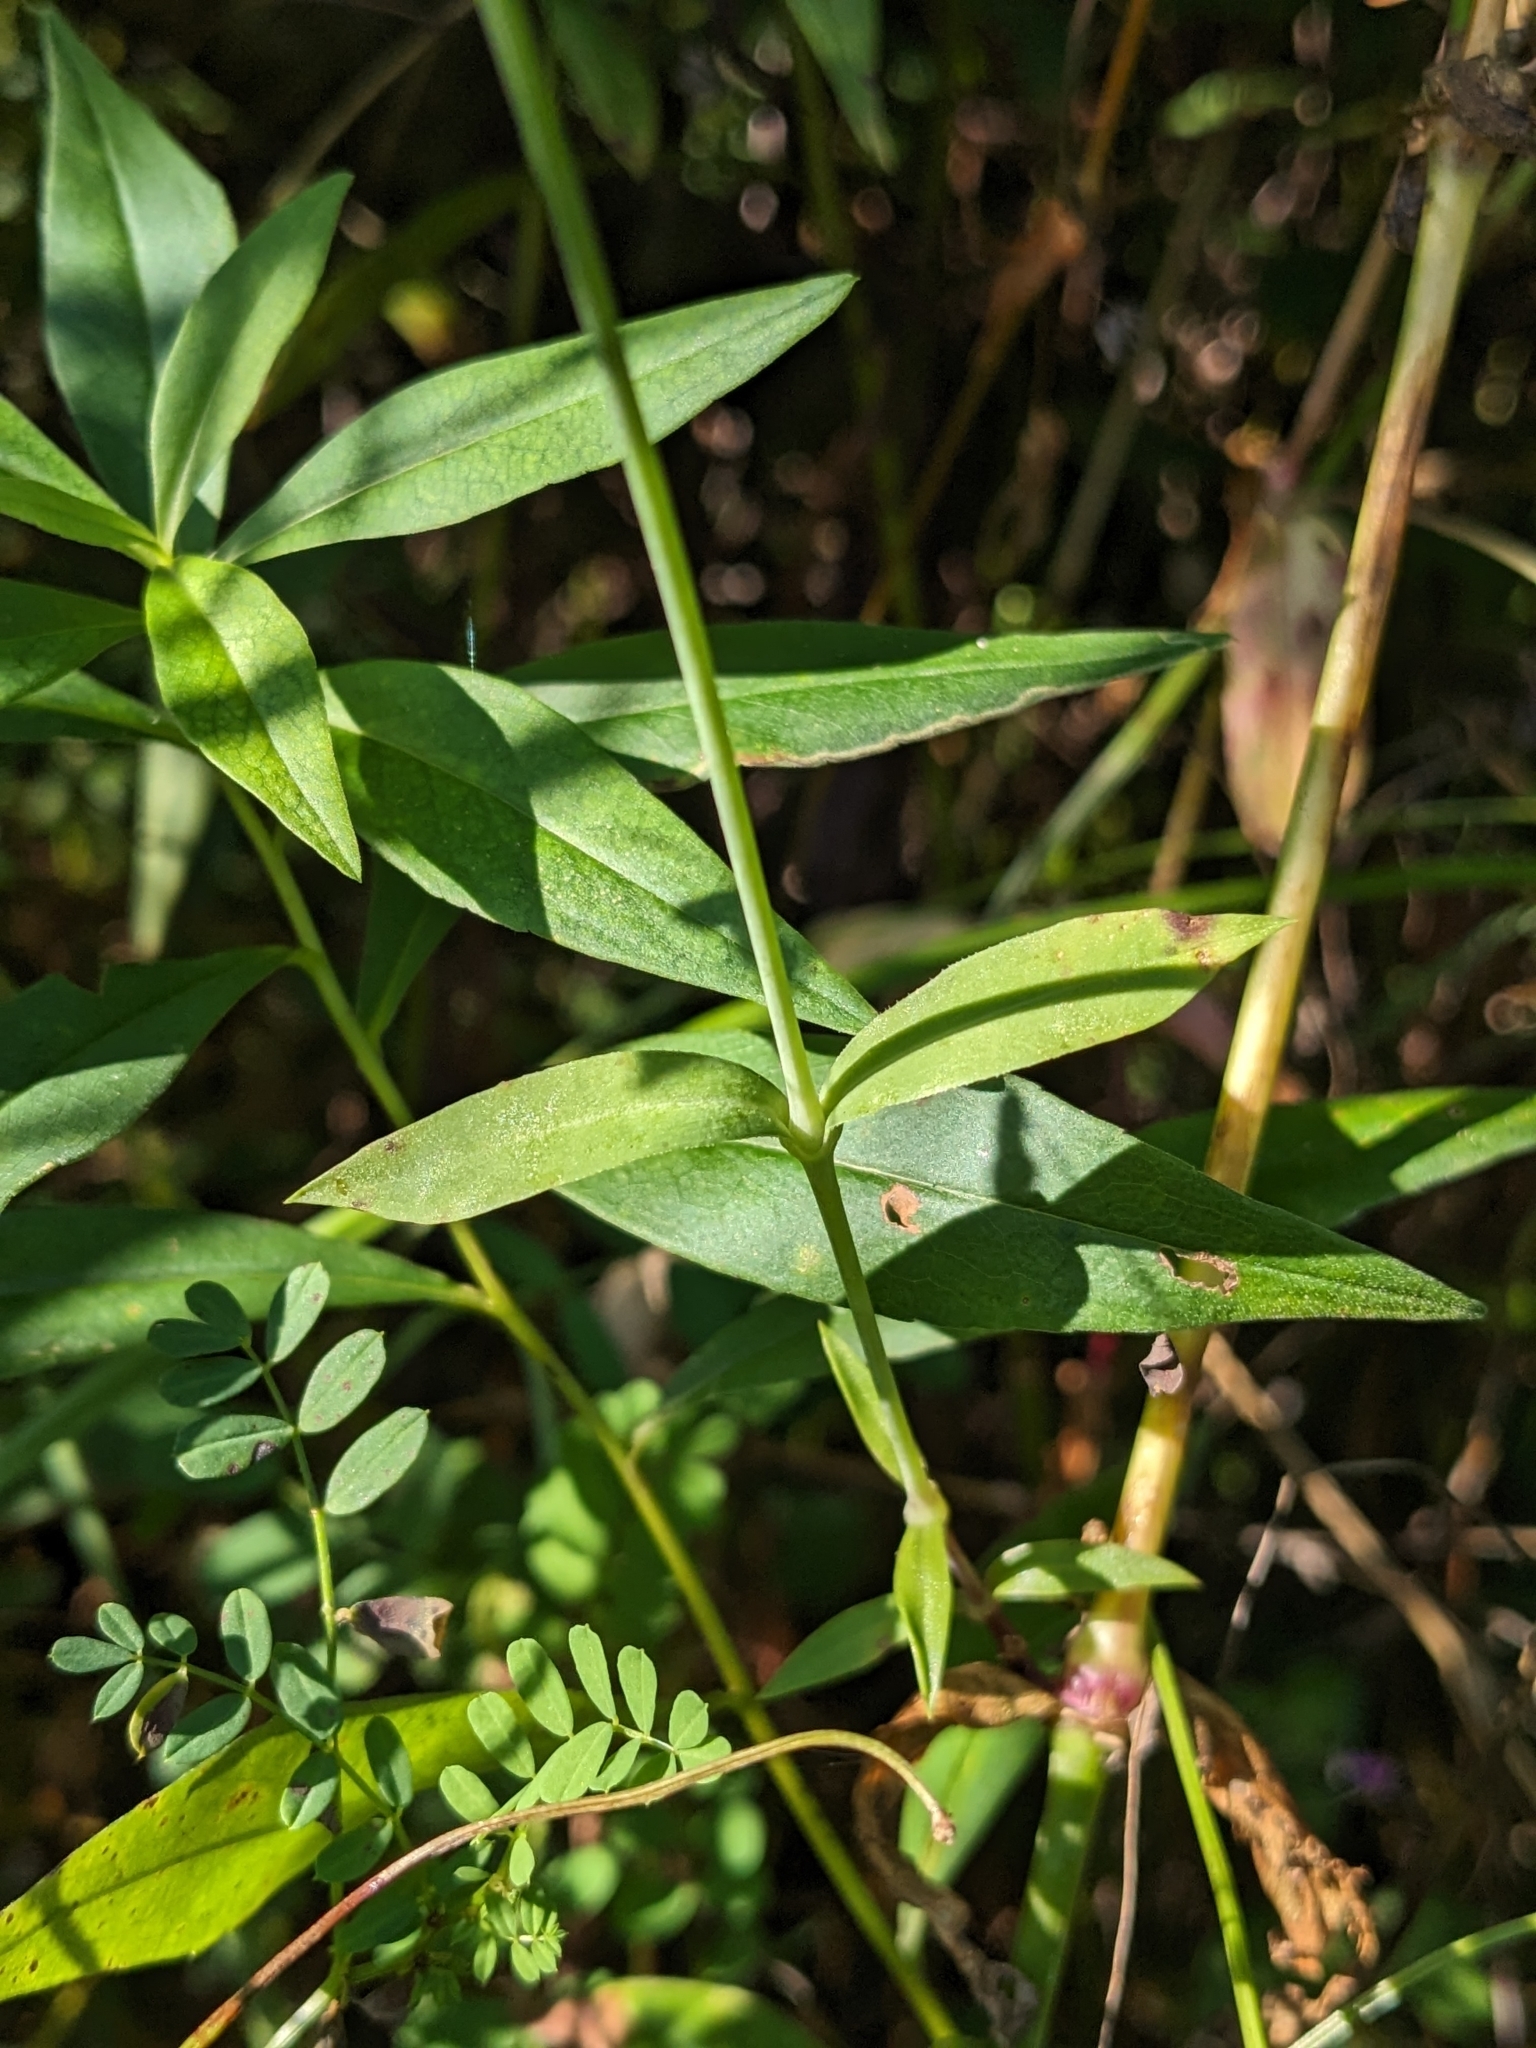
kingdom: Plantae
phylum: Tracheophyta
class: Magnoliopsida
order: Caryophyllales
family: Caryophyllaceae
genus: Silene
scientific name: Silene vulgaris
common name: Bladder campion
